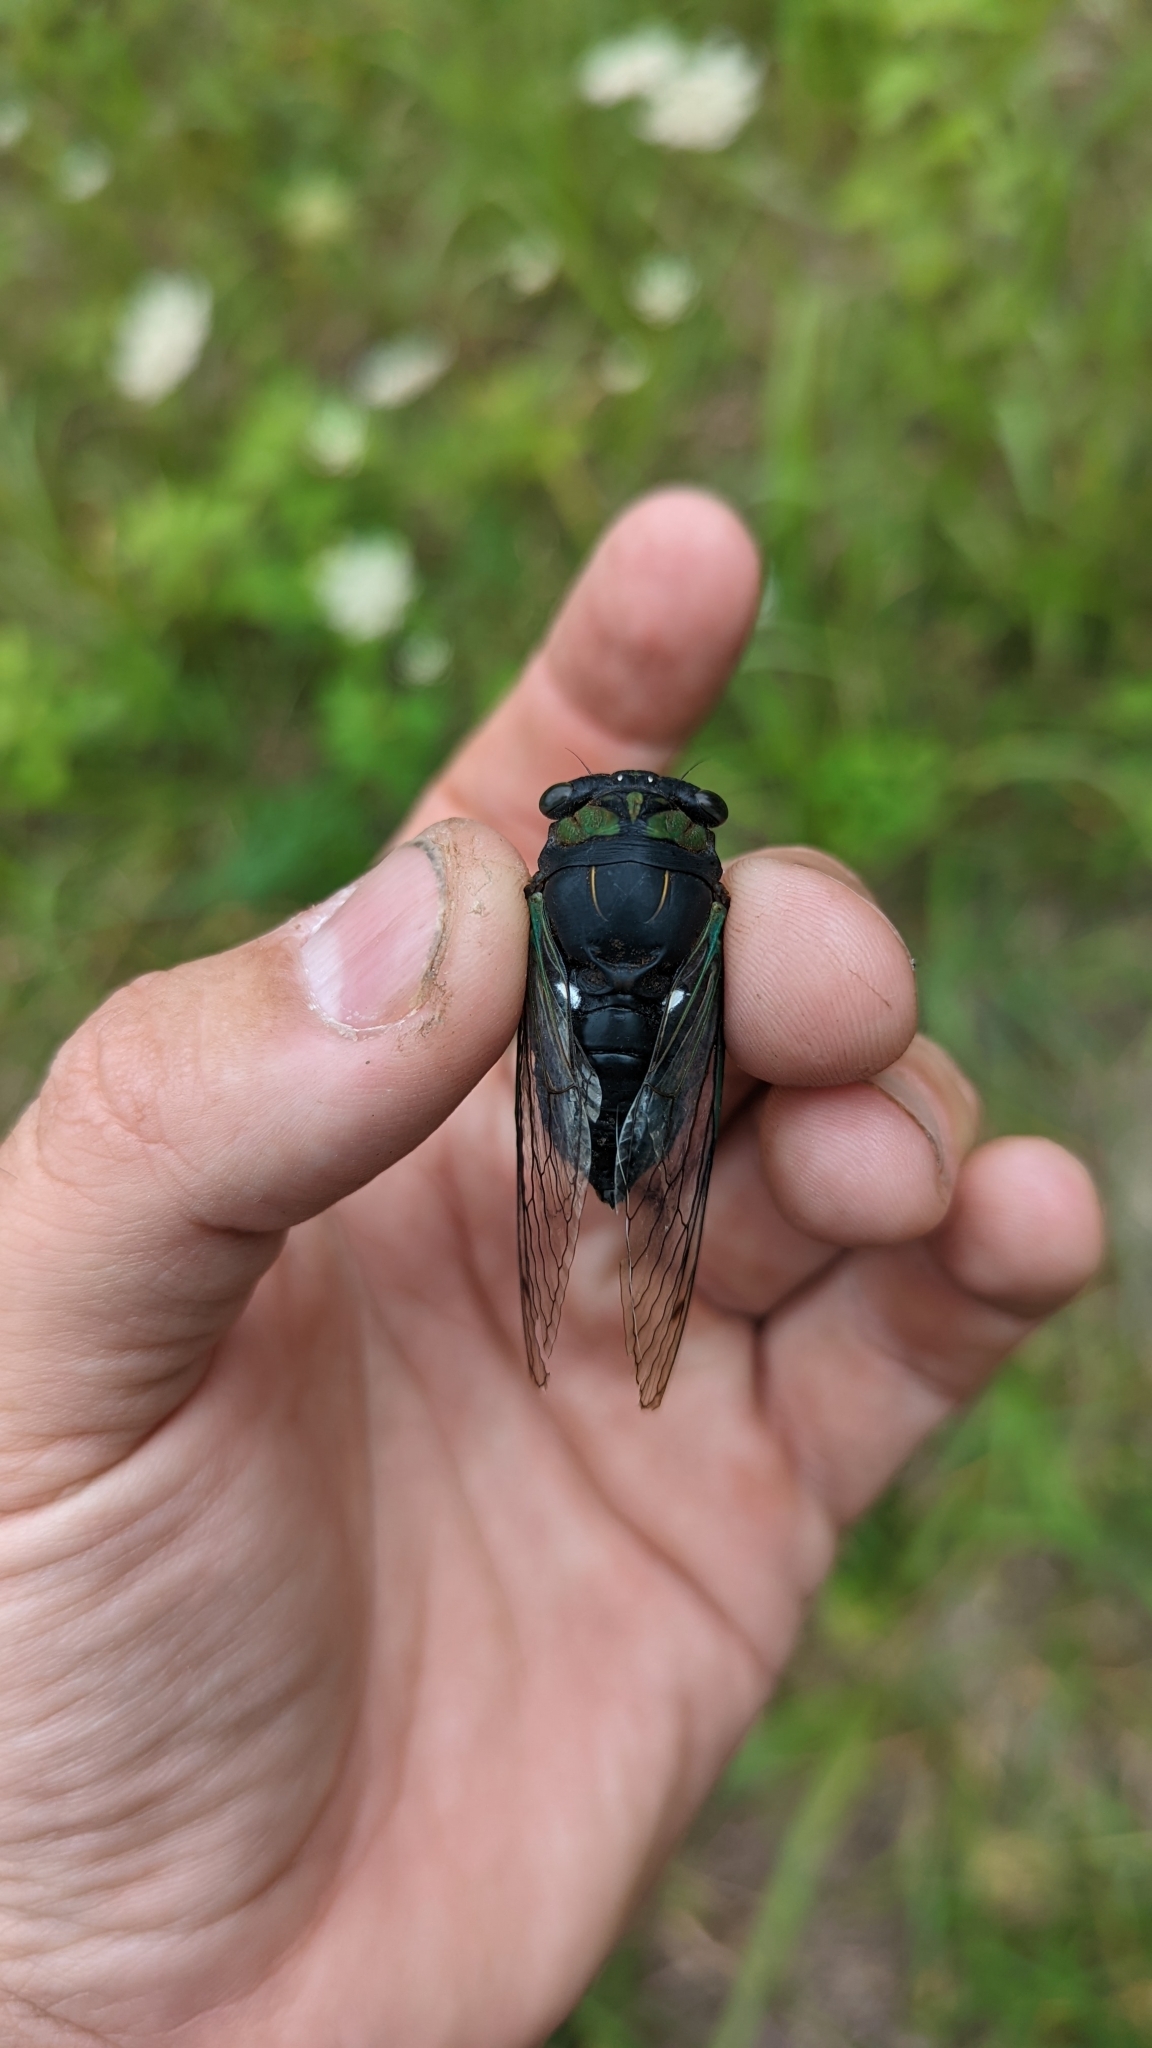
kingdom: Animalia
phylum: Arthropoda
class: Insecta
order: Hemiptera
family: Cicadidae
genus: Neotibicen
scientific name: Neotibicen tibicen
